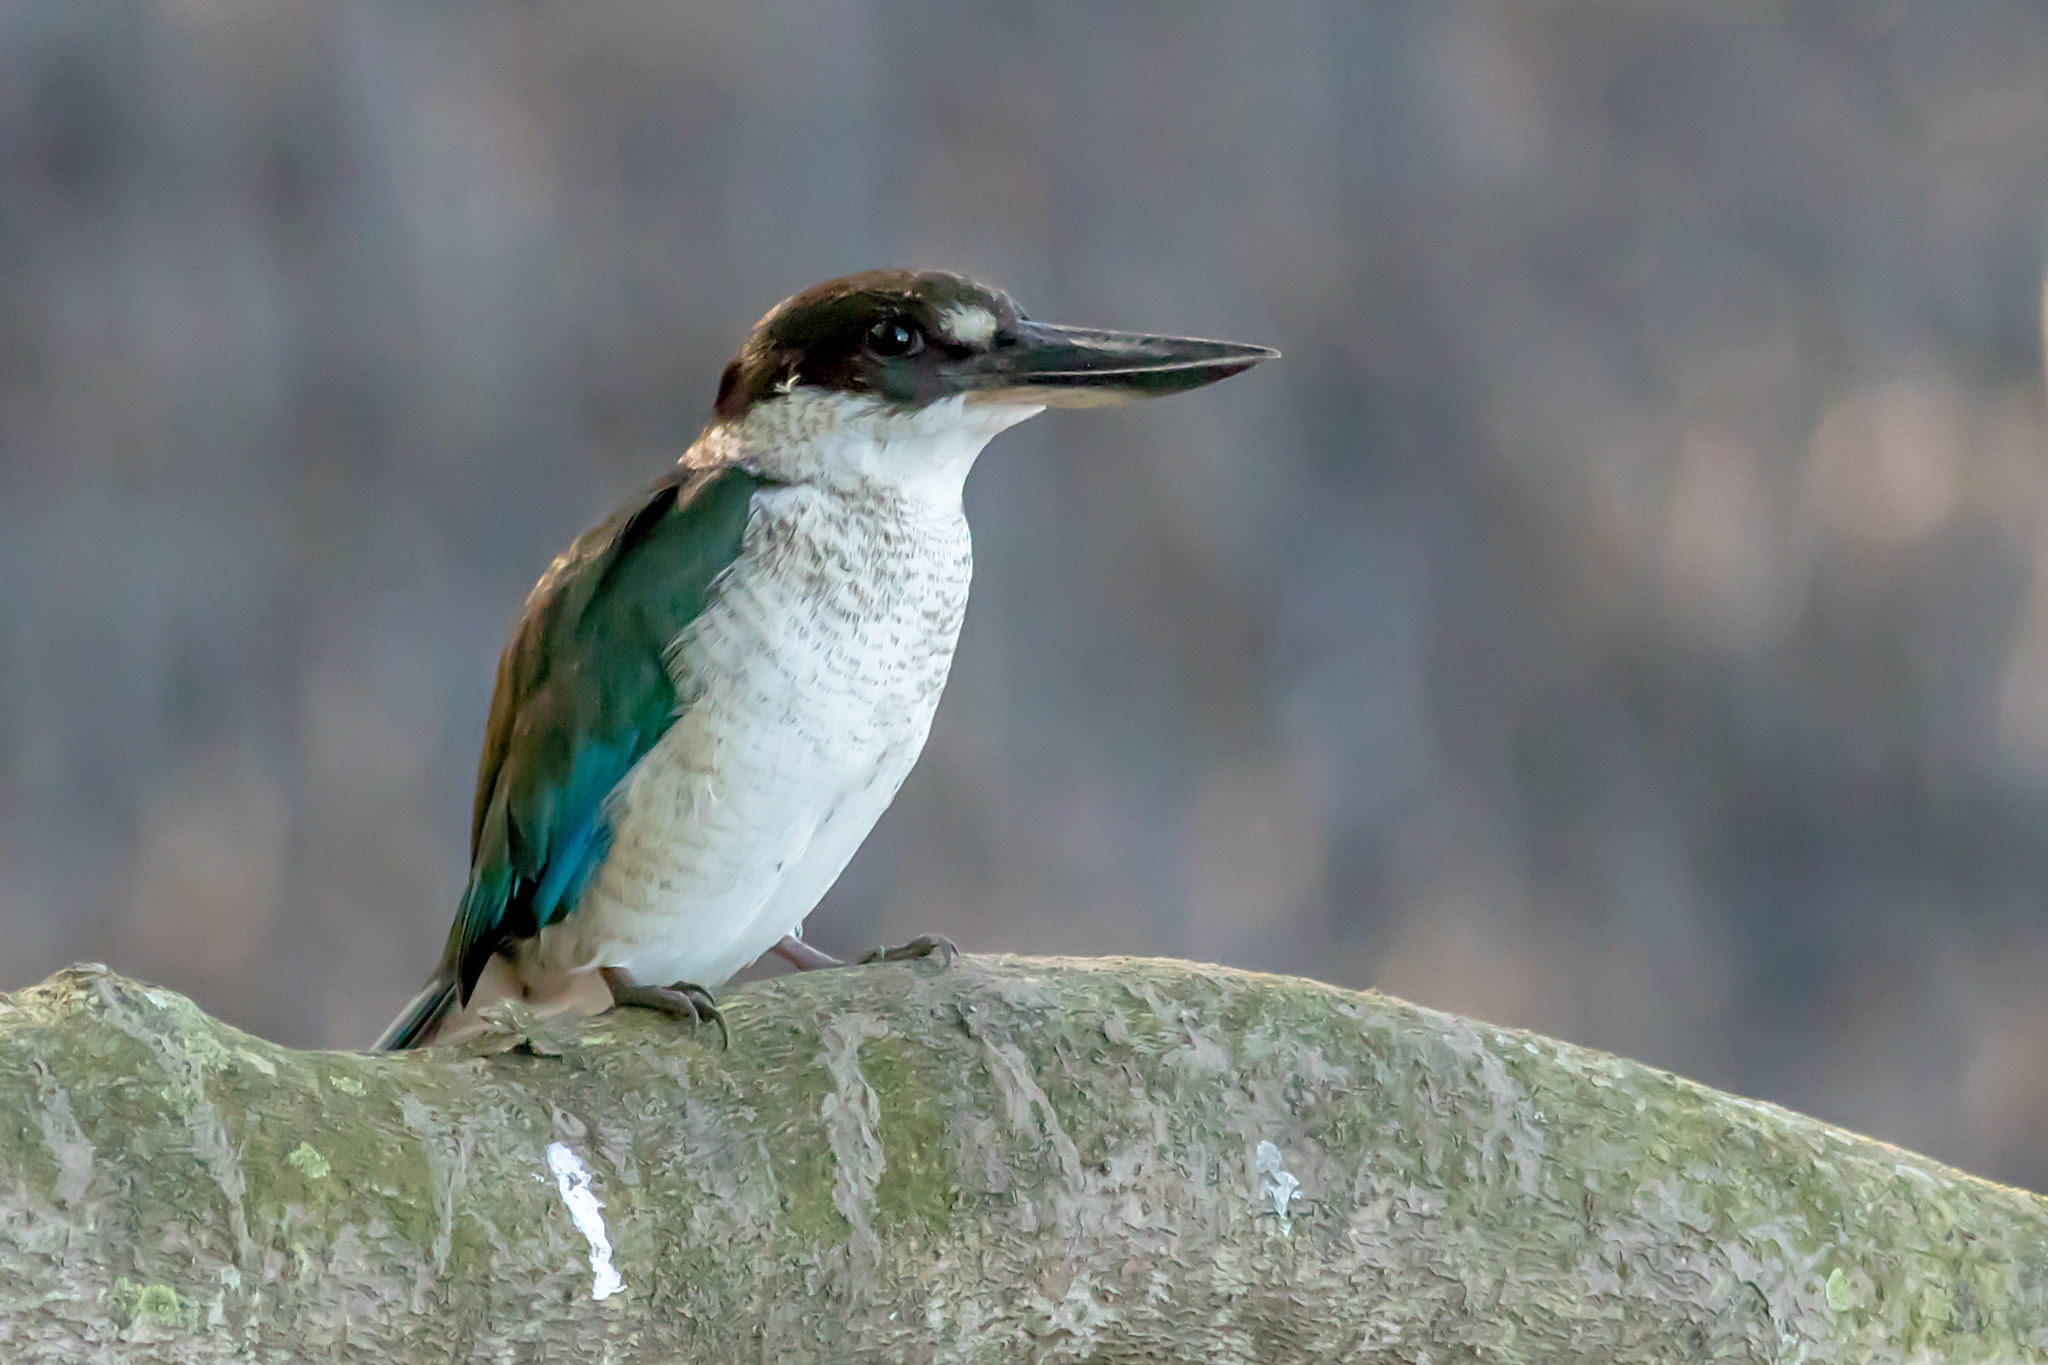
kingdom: Animalia
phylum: Chordata
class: Aves
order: Coraciiformes
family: Alcedinidae
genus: Todiramphus
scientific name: Todiramphus sordidus
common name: Torresian kingfisher
